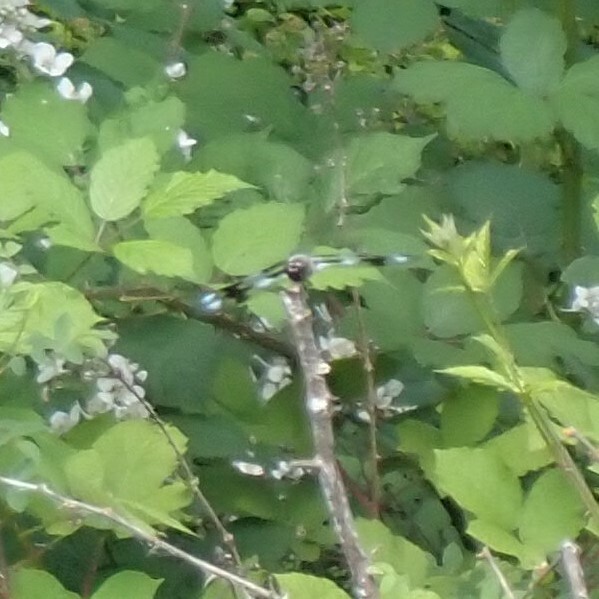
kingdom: Animalia
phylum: Arthropoda
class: Insecta
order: Odonata
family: Libellulidae
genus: Libellula
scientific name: Libellula forensis
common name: Eight-spotted skimmer
